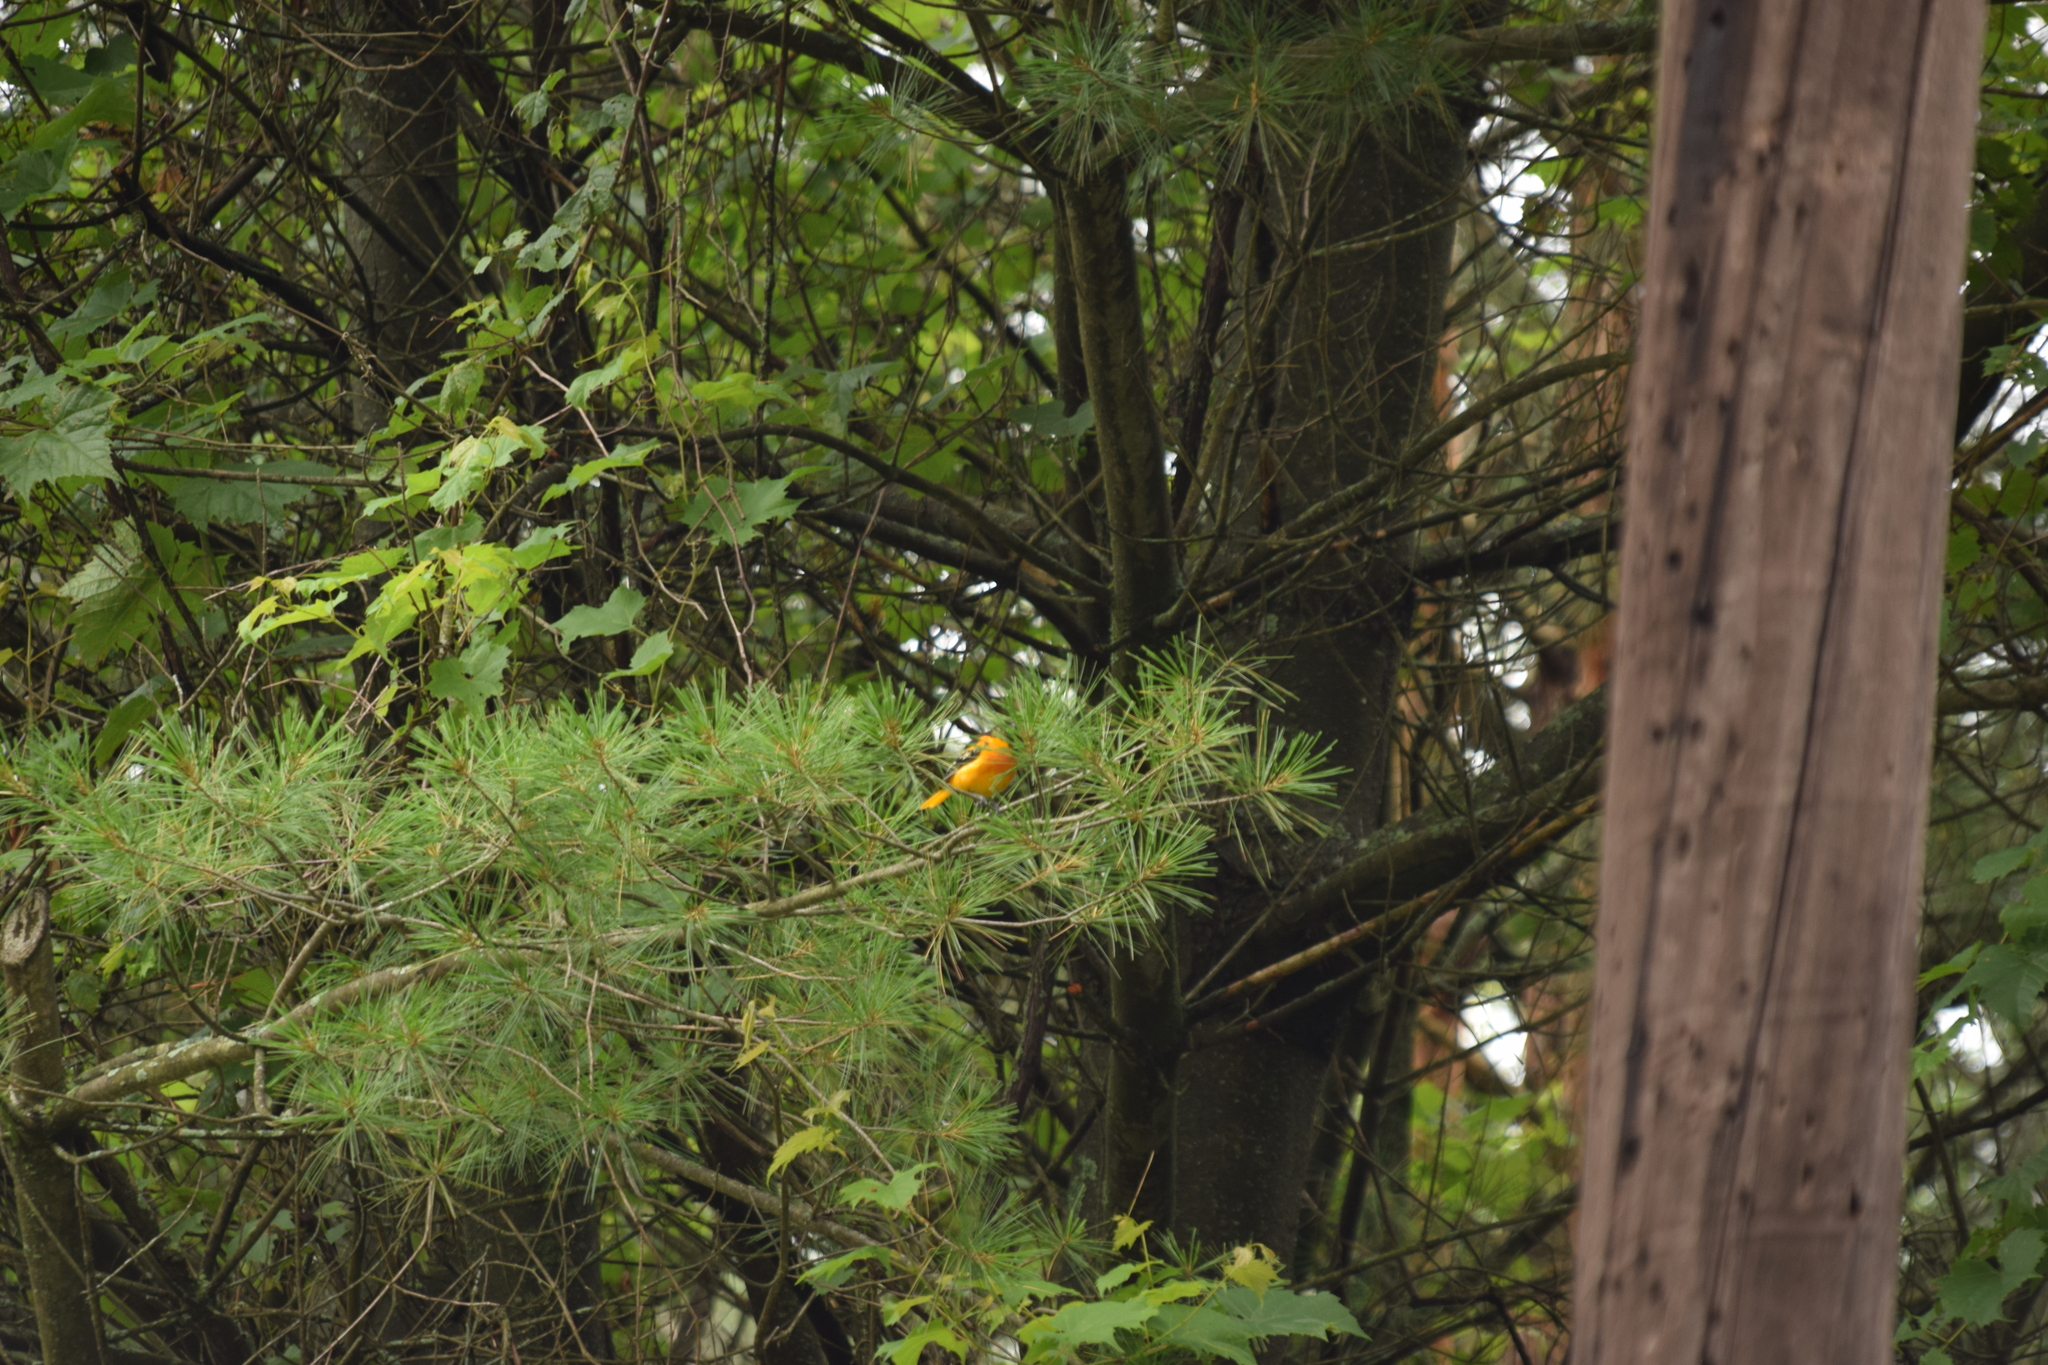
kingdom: Animalia
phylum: Chordata
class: Aves
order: Passeriformes
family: Icteridae
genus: Icterus
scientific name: Icterus galbula
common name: Baltimore oriole
